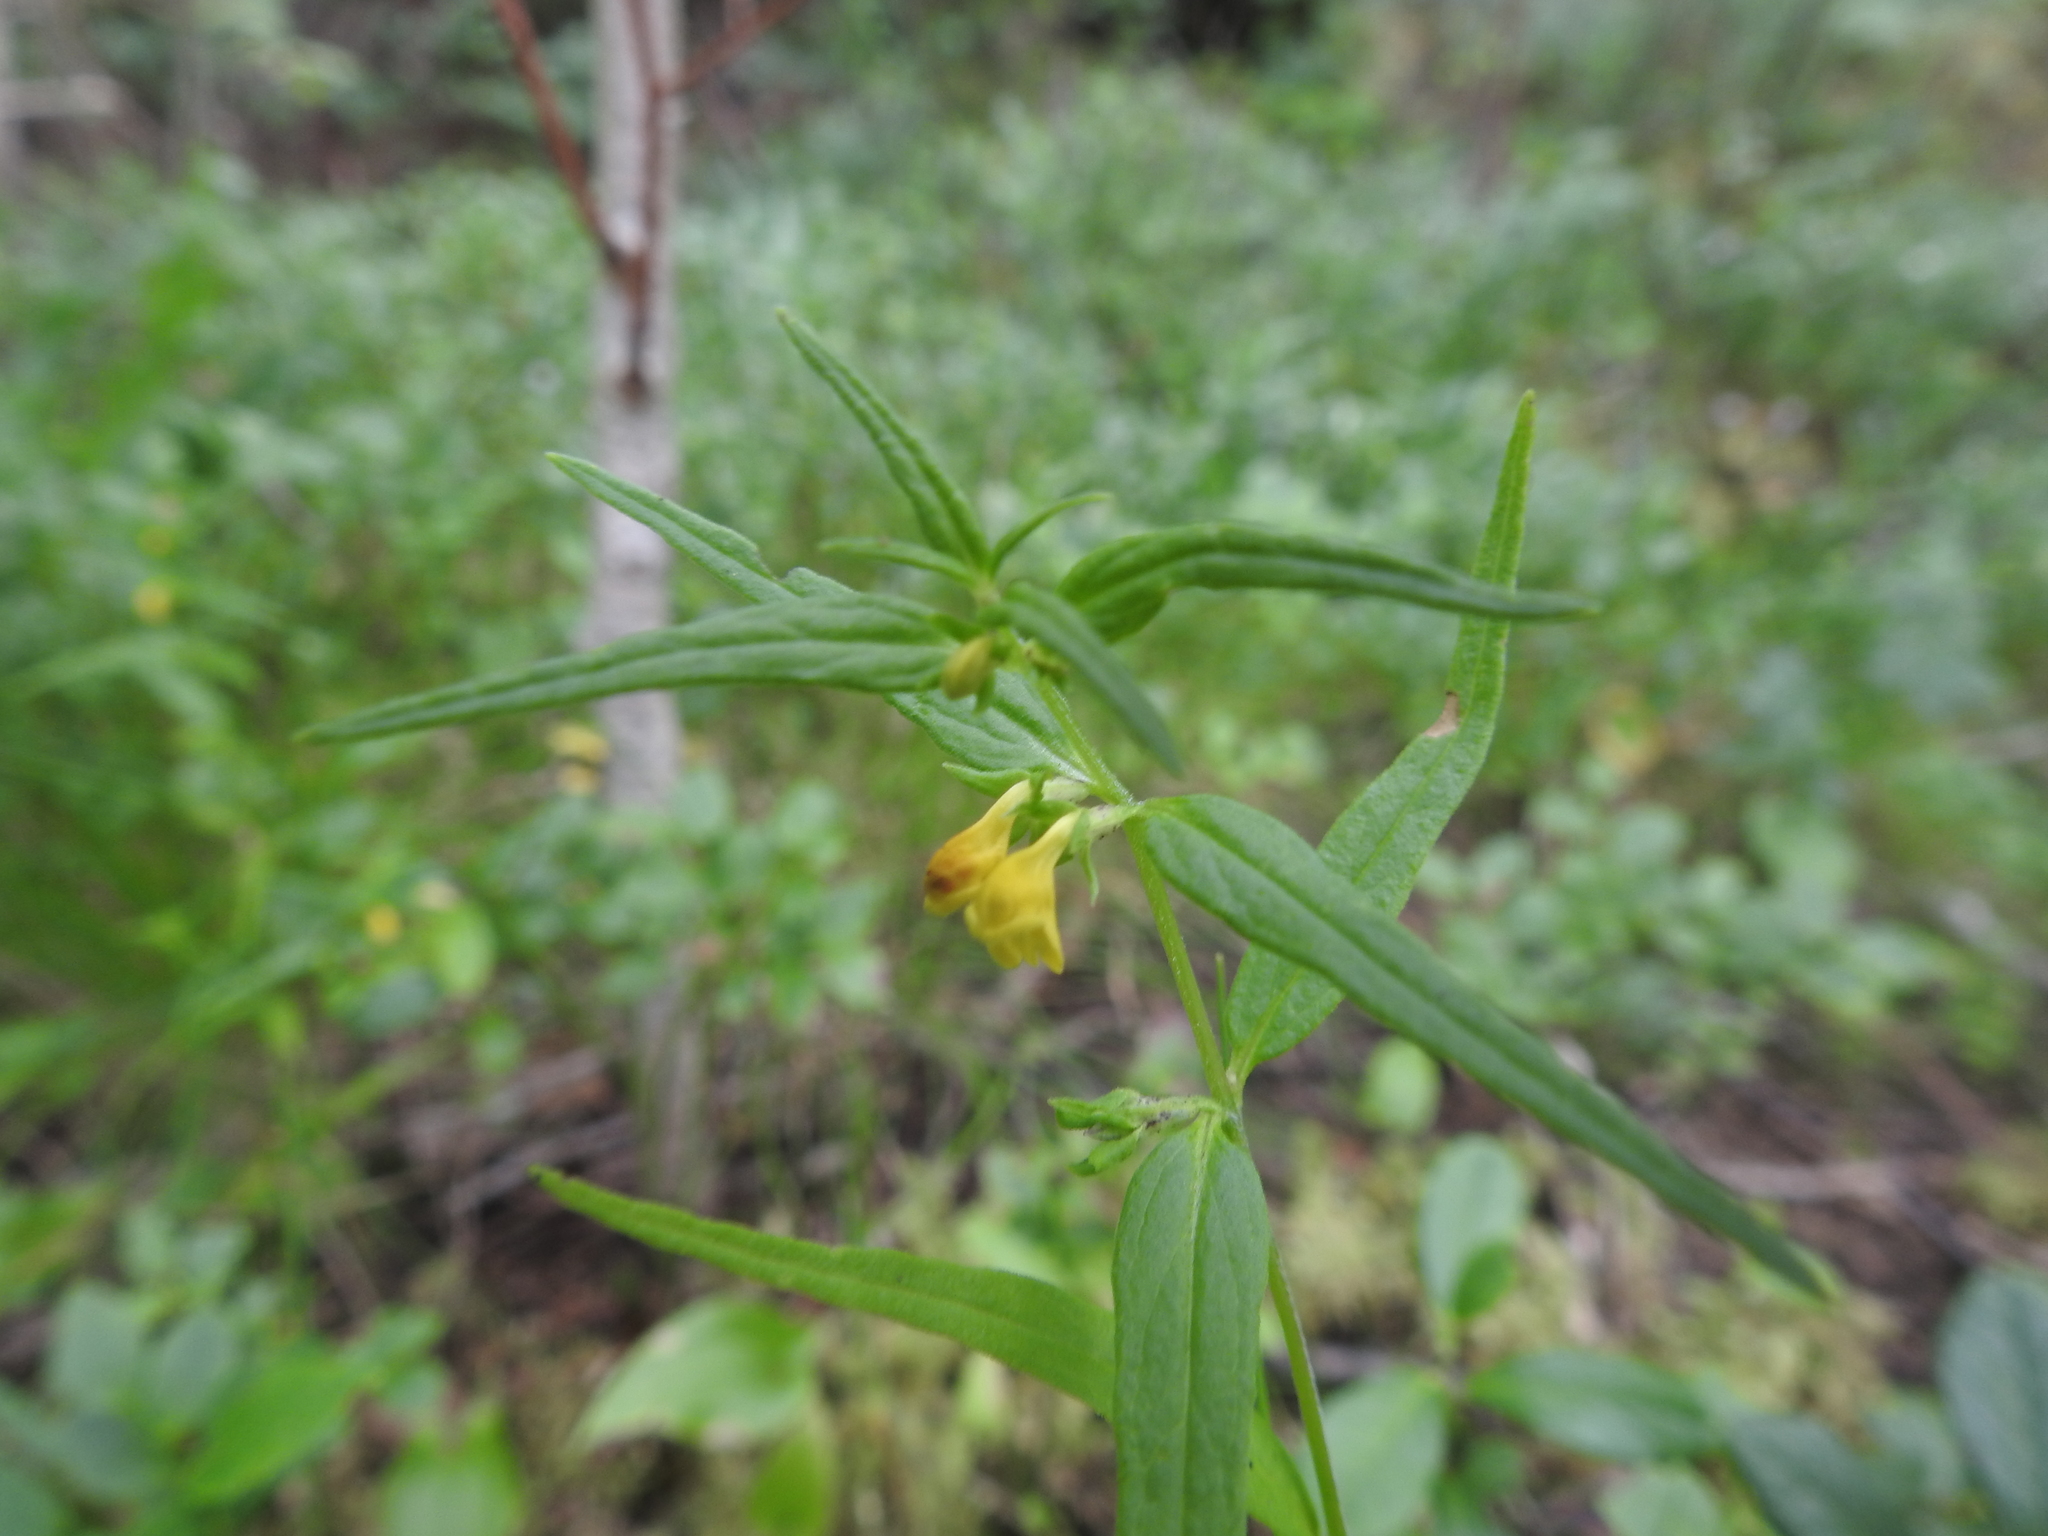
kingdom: Plantae
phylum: Tracheophyta
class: Magnoliopsida
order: Lamiales
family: Orobanchaceae
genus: Melampyrum
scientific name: Melampyrum sylvaticum
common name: Small cow-wheat
